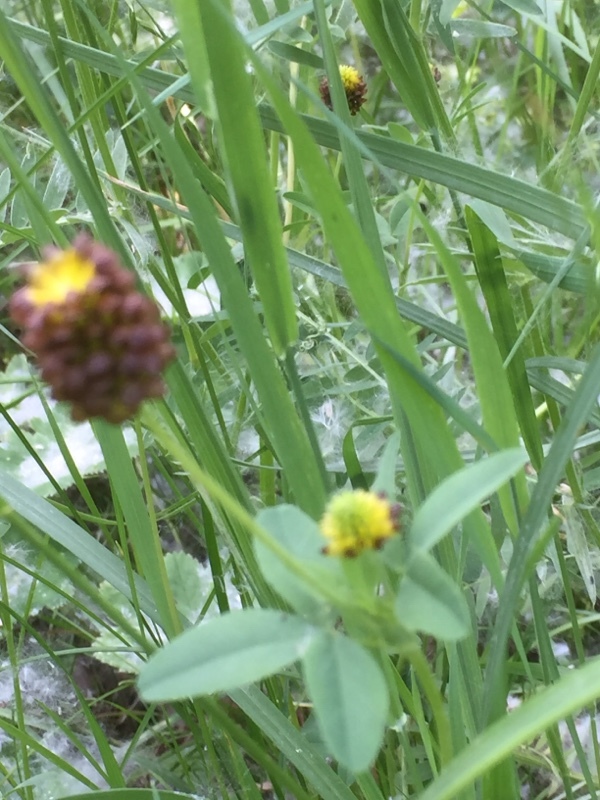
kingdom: Plantae
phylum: Tracheophyta
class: Magnoliopsida
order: Fabales
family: Fabaceae
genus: Trifolium
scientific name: Trifolium spadiceum
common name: Brown moor clover
